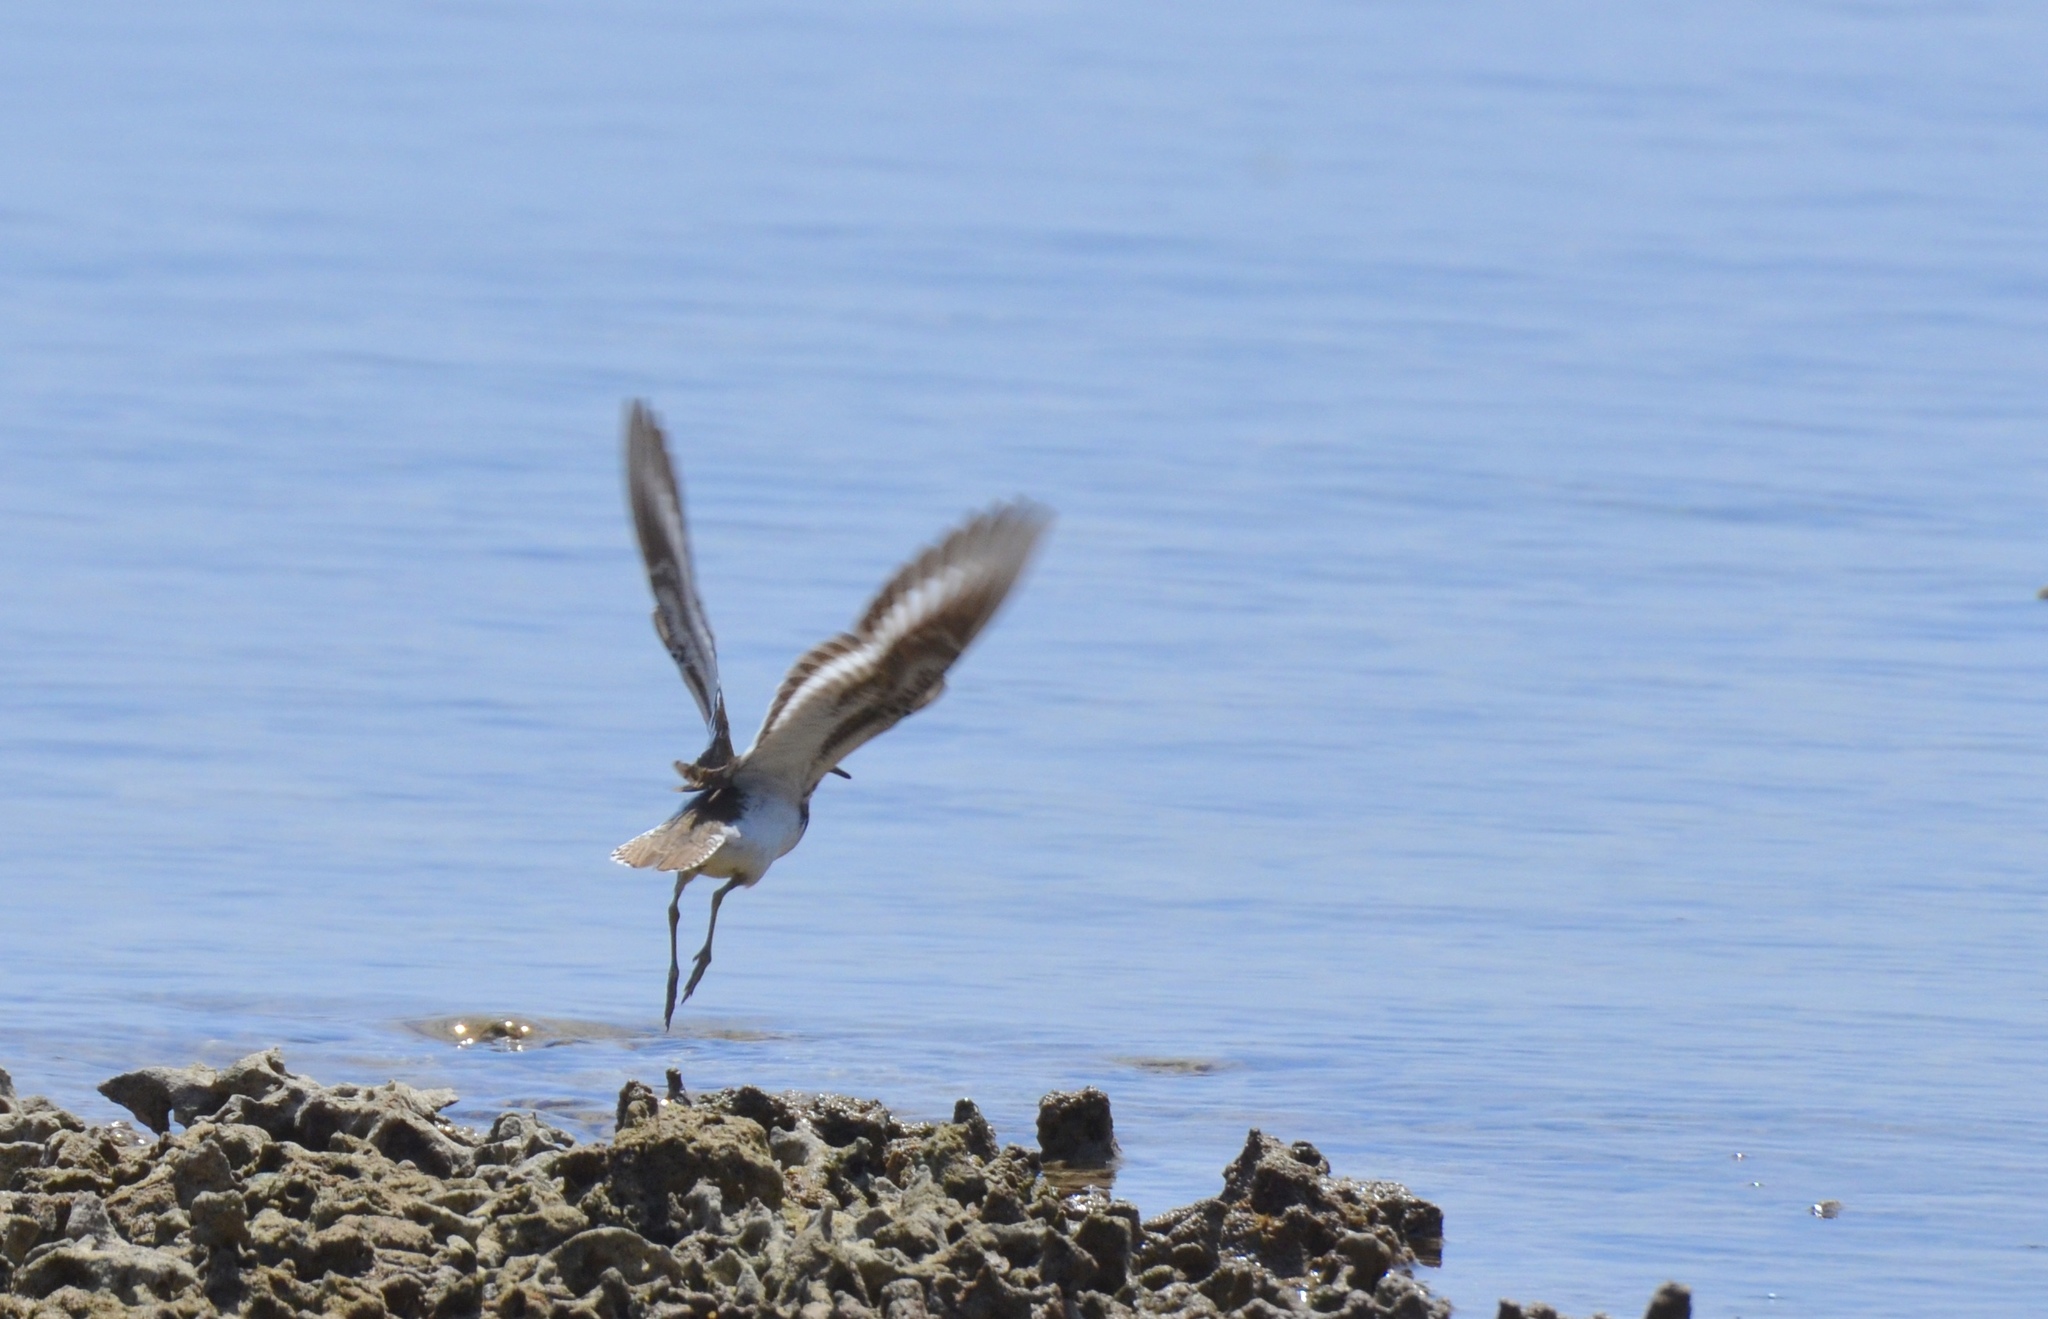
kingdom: Animalia
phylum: Chordata
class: Aves
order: Charadriiformes
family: Scolopacidae
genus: Actitis
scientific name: Actitis hypoleucos
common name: Common sandpiper
